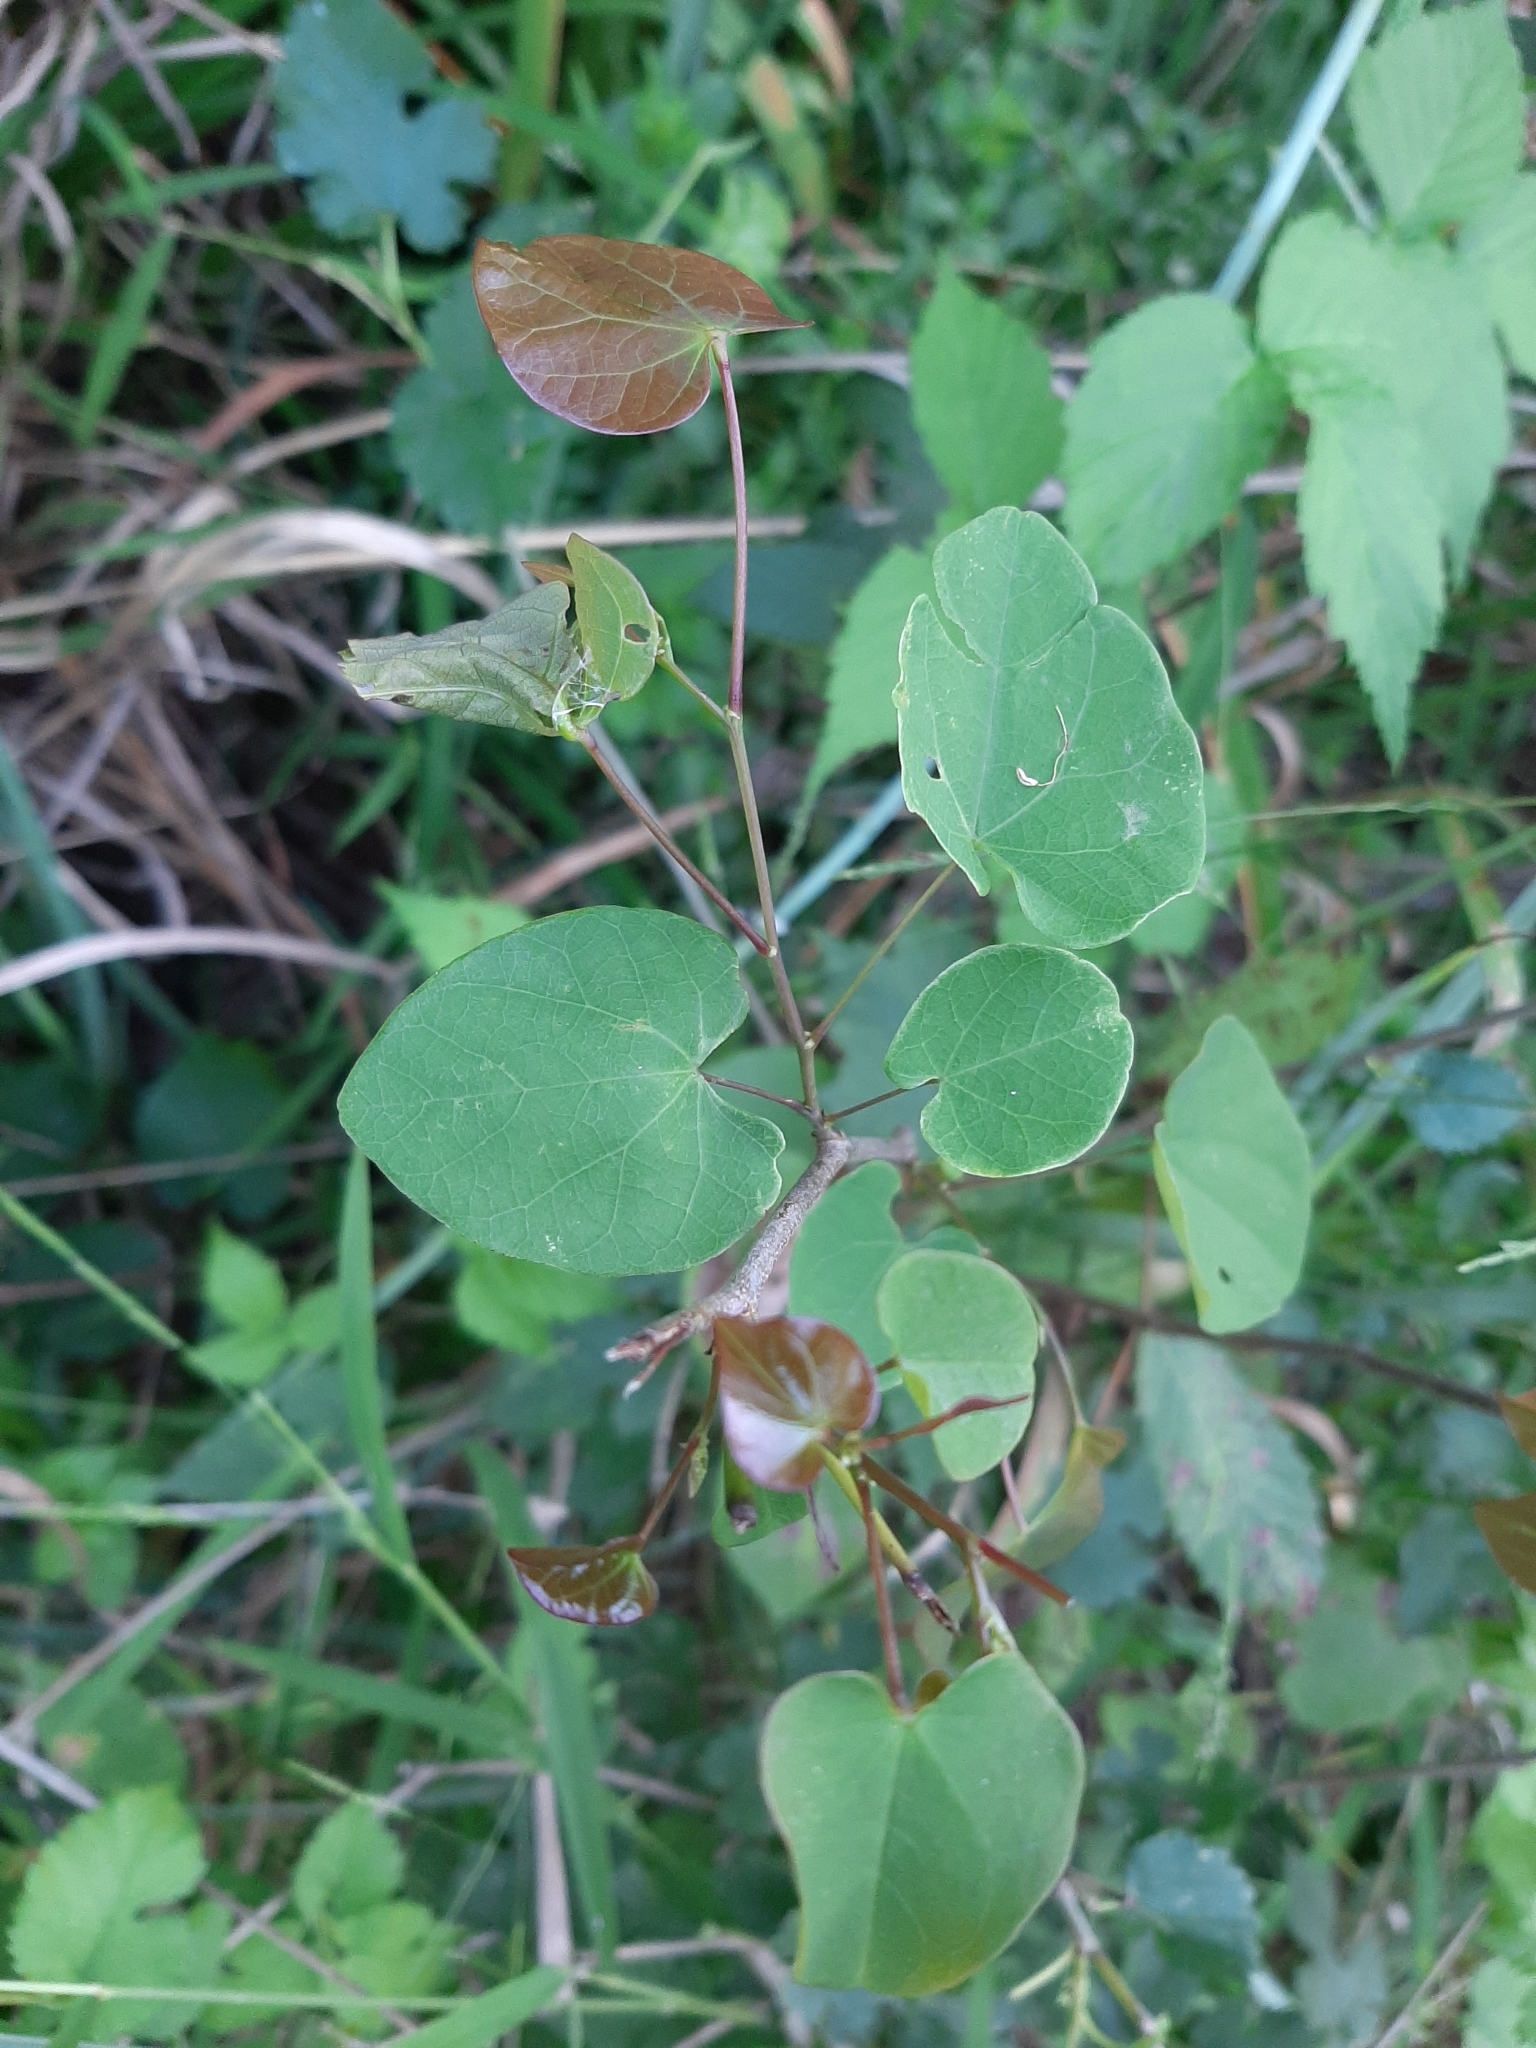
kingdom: Plantae
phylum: Tracheophyta
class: Magnoliopsida
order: Fabales
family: Fabaceae
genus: Cercis
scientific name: Cercis canadensis
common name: Eastern redbud
